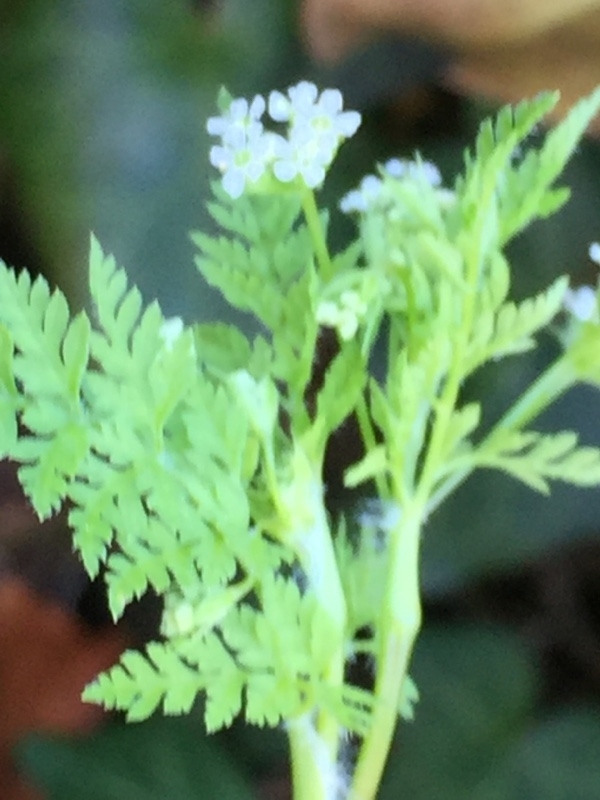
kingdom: Plantae
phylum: Tracheophyta
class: Magnoliopsida
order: Apiales
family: Apiaceae
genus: Anthriscus
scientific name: Anthriscus caucalis
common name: Bur chervil
